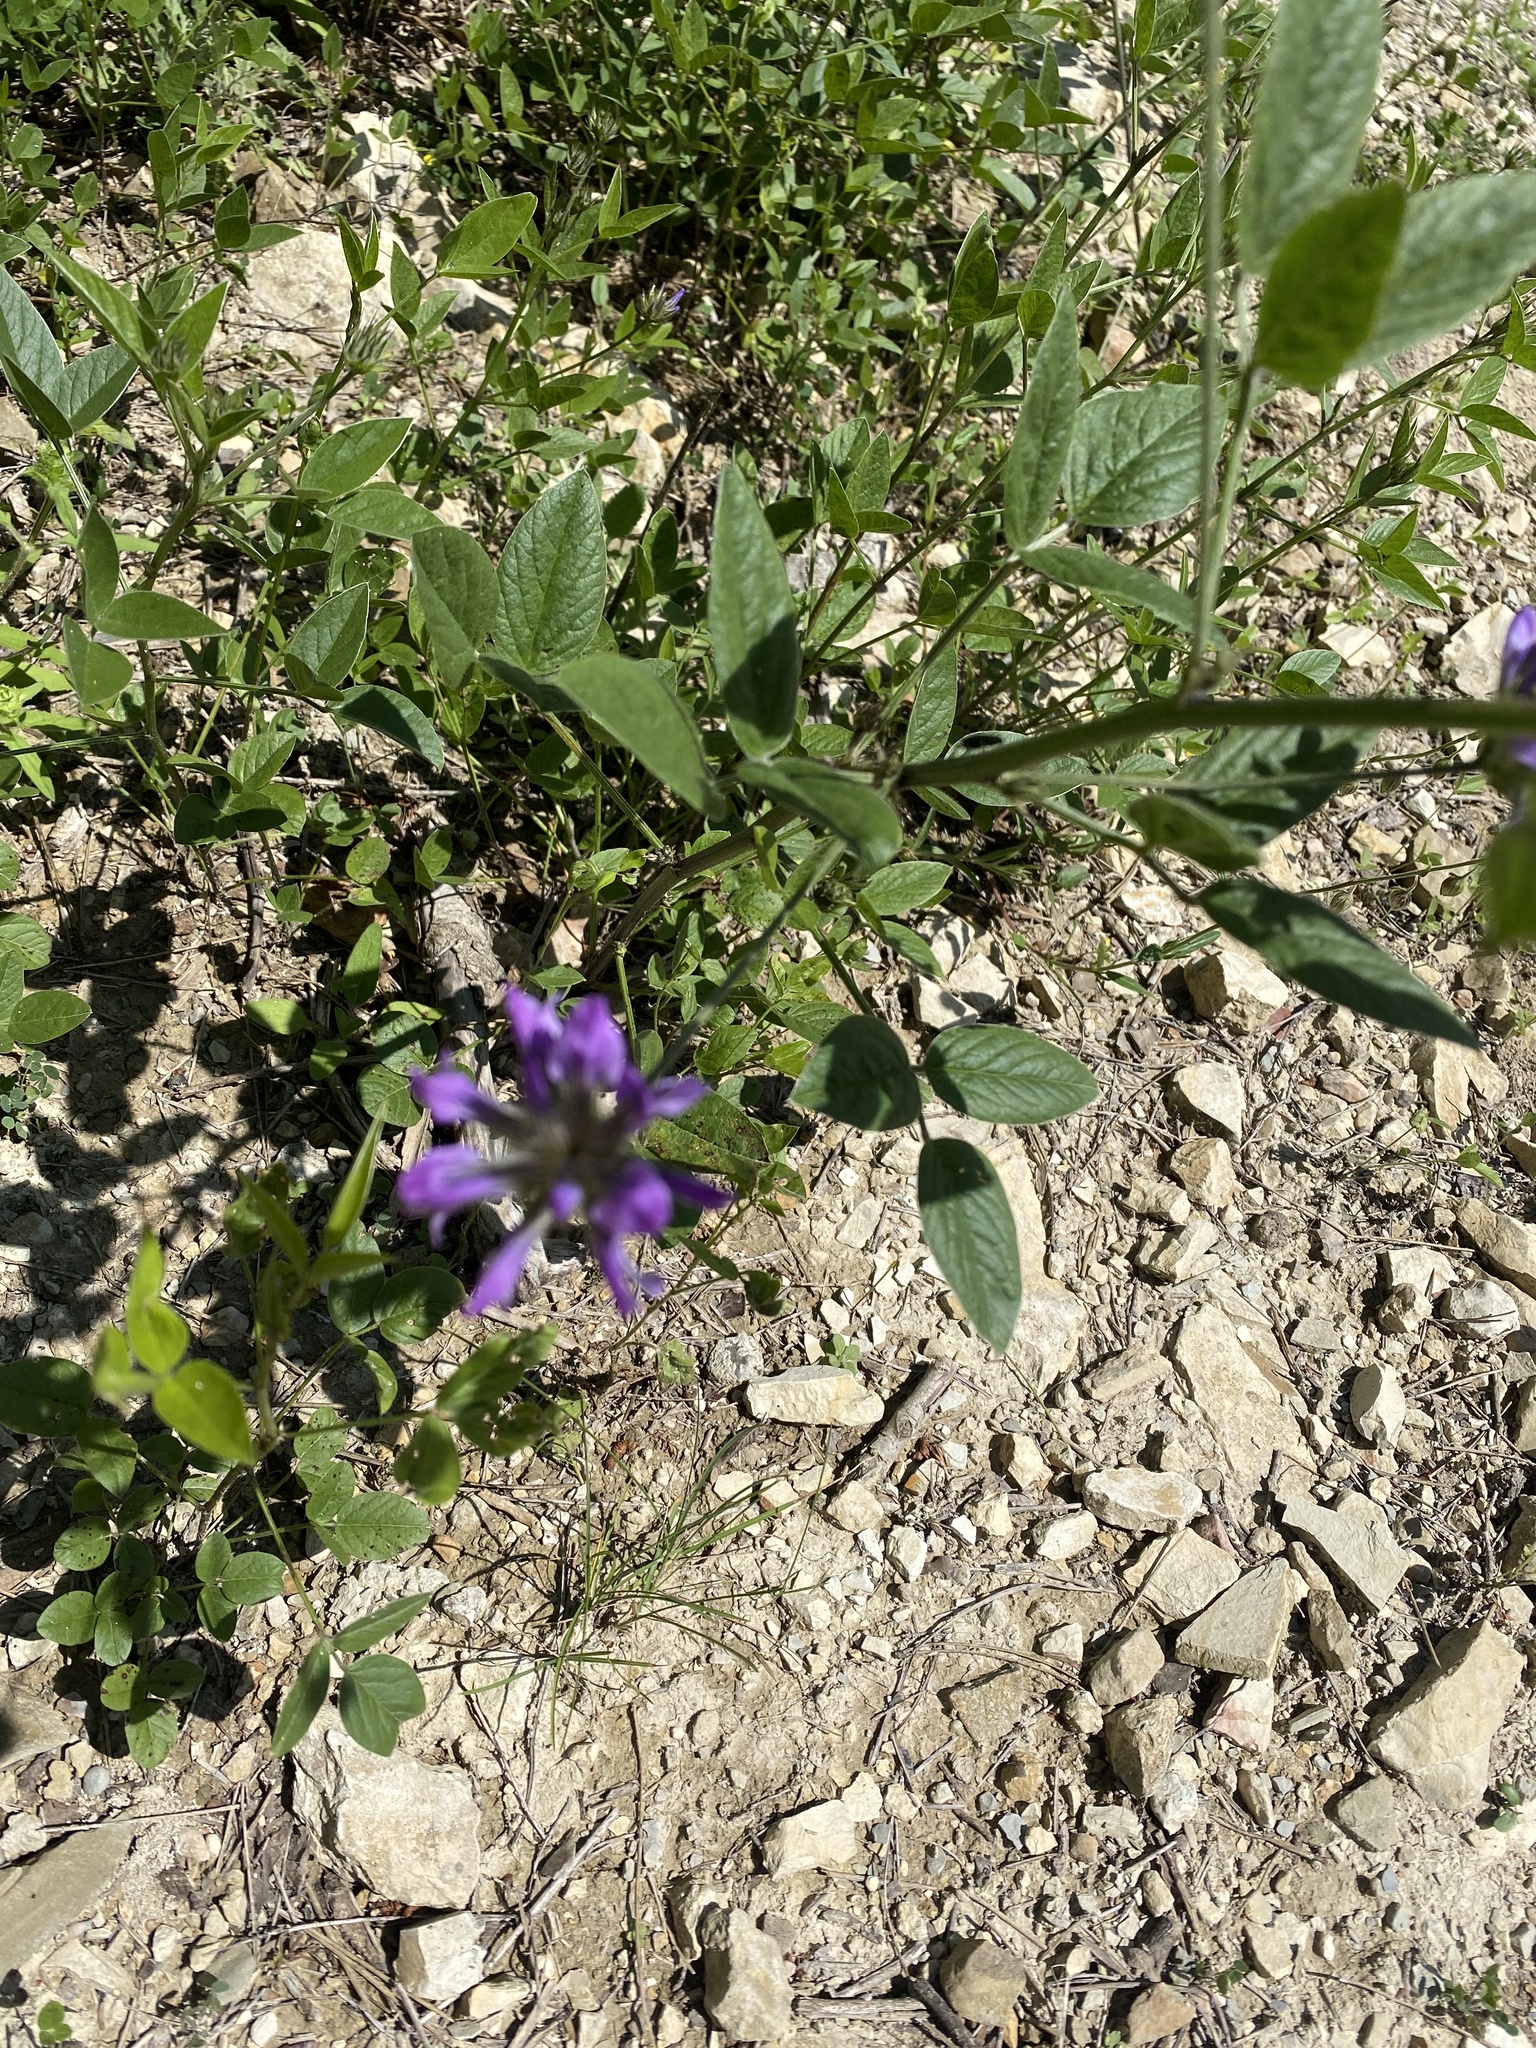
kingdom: Plantae
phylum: Tracheophyta
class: Magnoliopsida
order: Fabales
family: Fabaceae
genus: Bituminaria
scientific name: Bituminaria bituminosa
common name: Arabian pea
